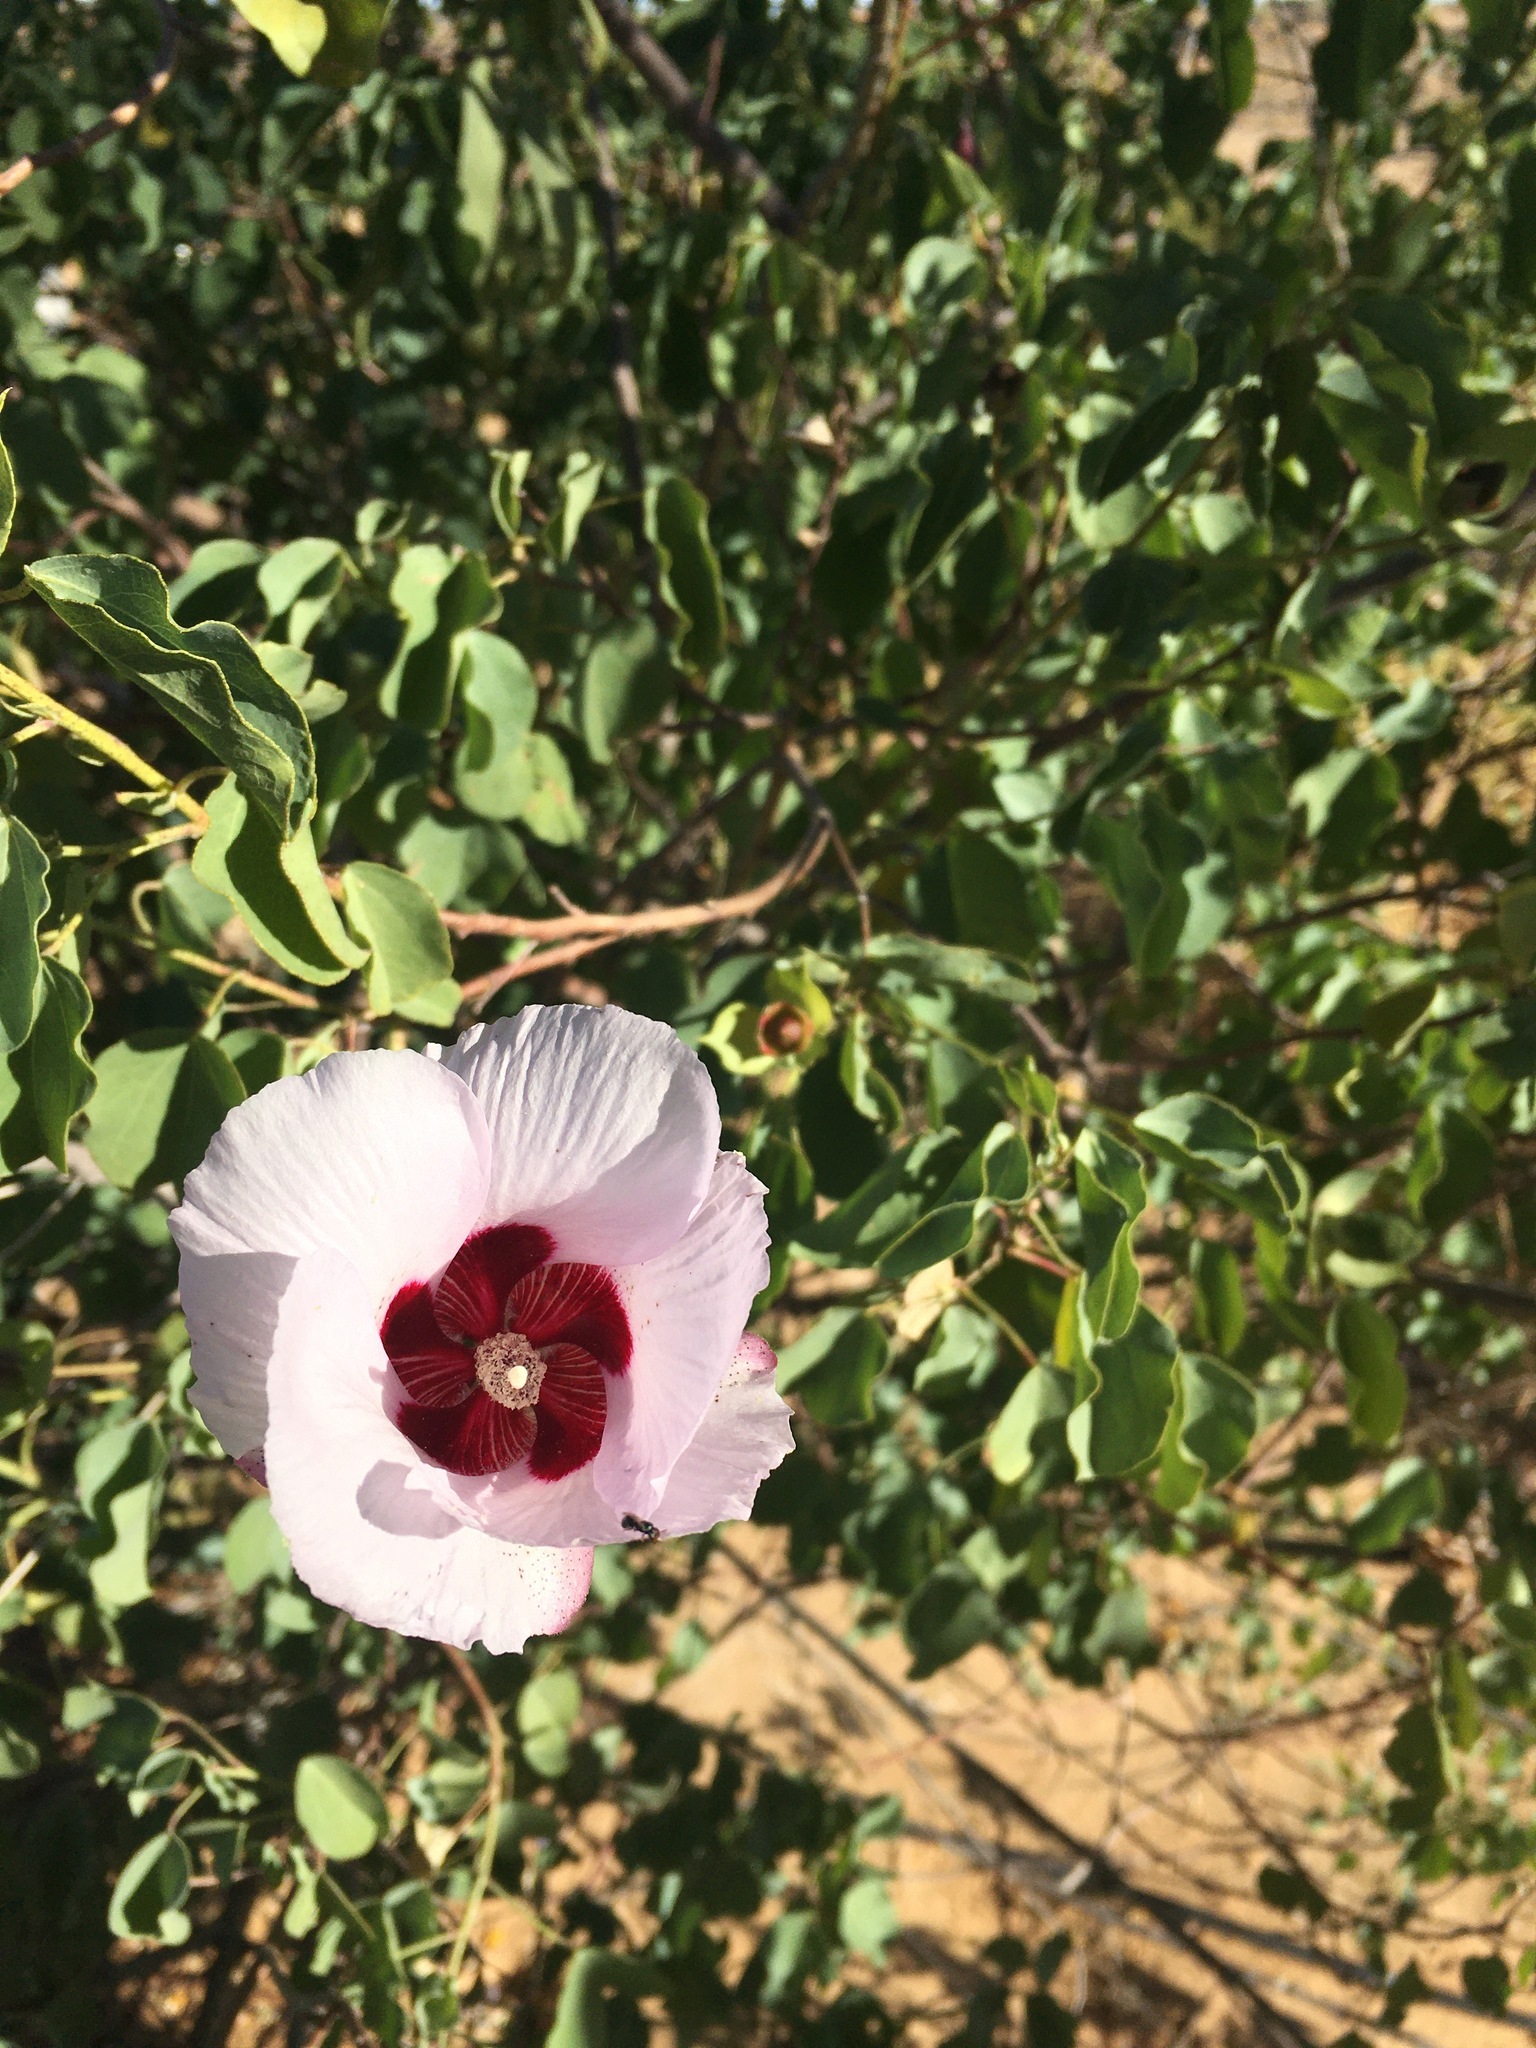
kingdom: Plantae
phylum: Tracheophyta
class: Magnoliopsida
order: Malvales
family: Malvaceae
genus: Gossypium
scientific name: Gossypium sturtianum
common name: Sturt's desert-rose
